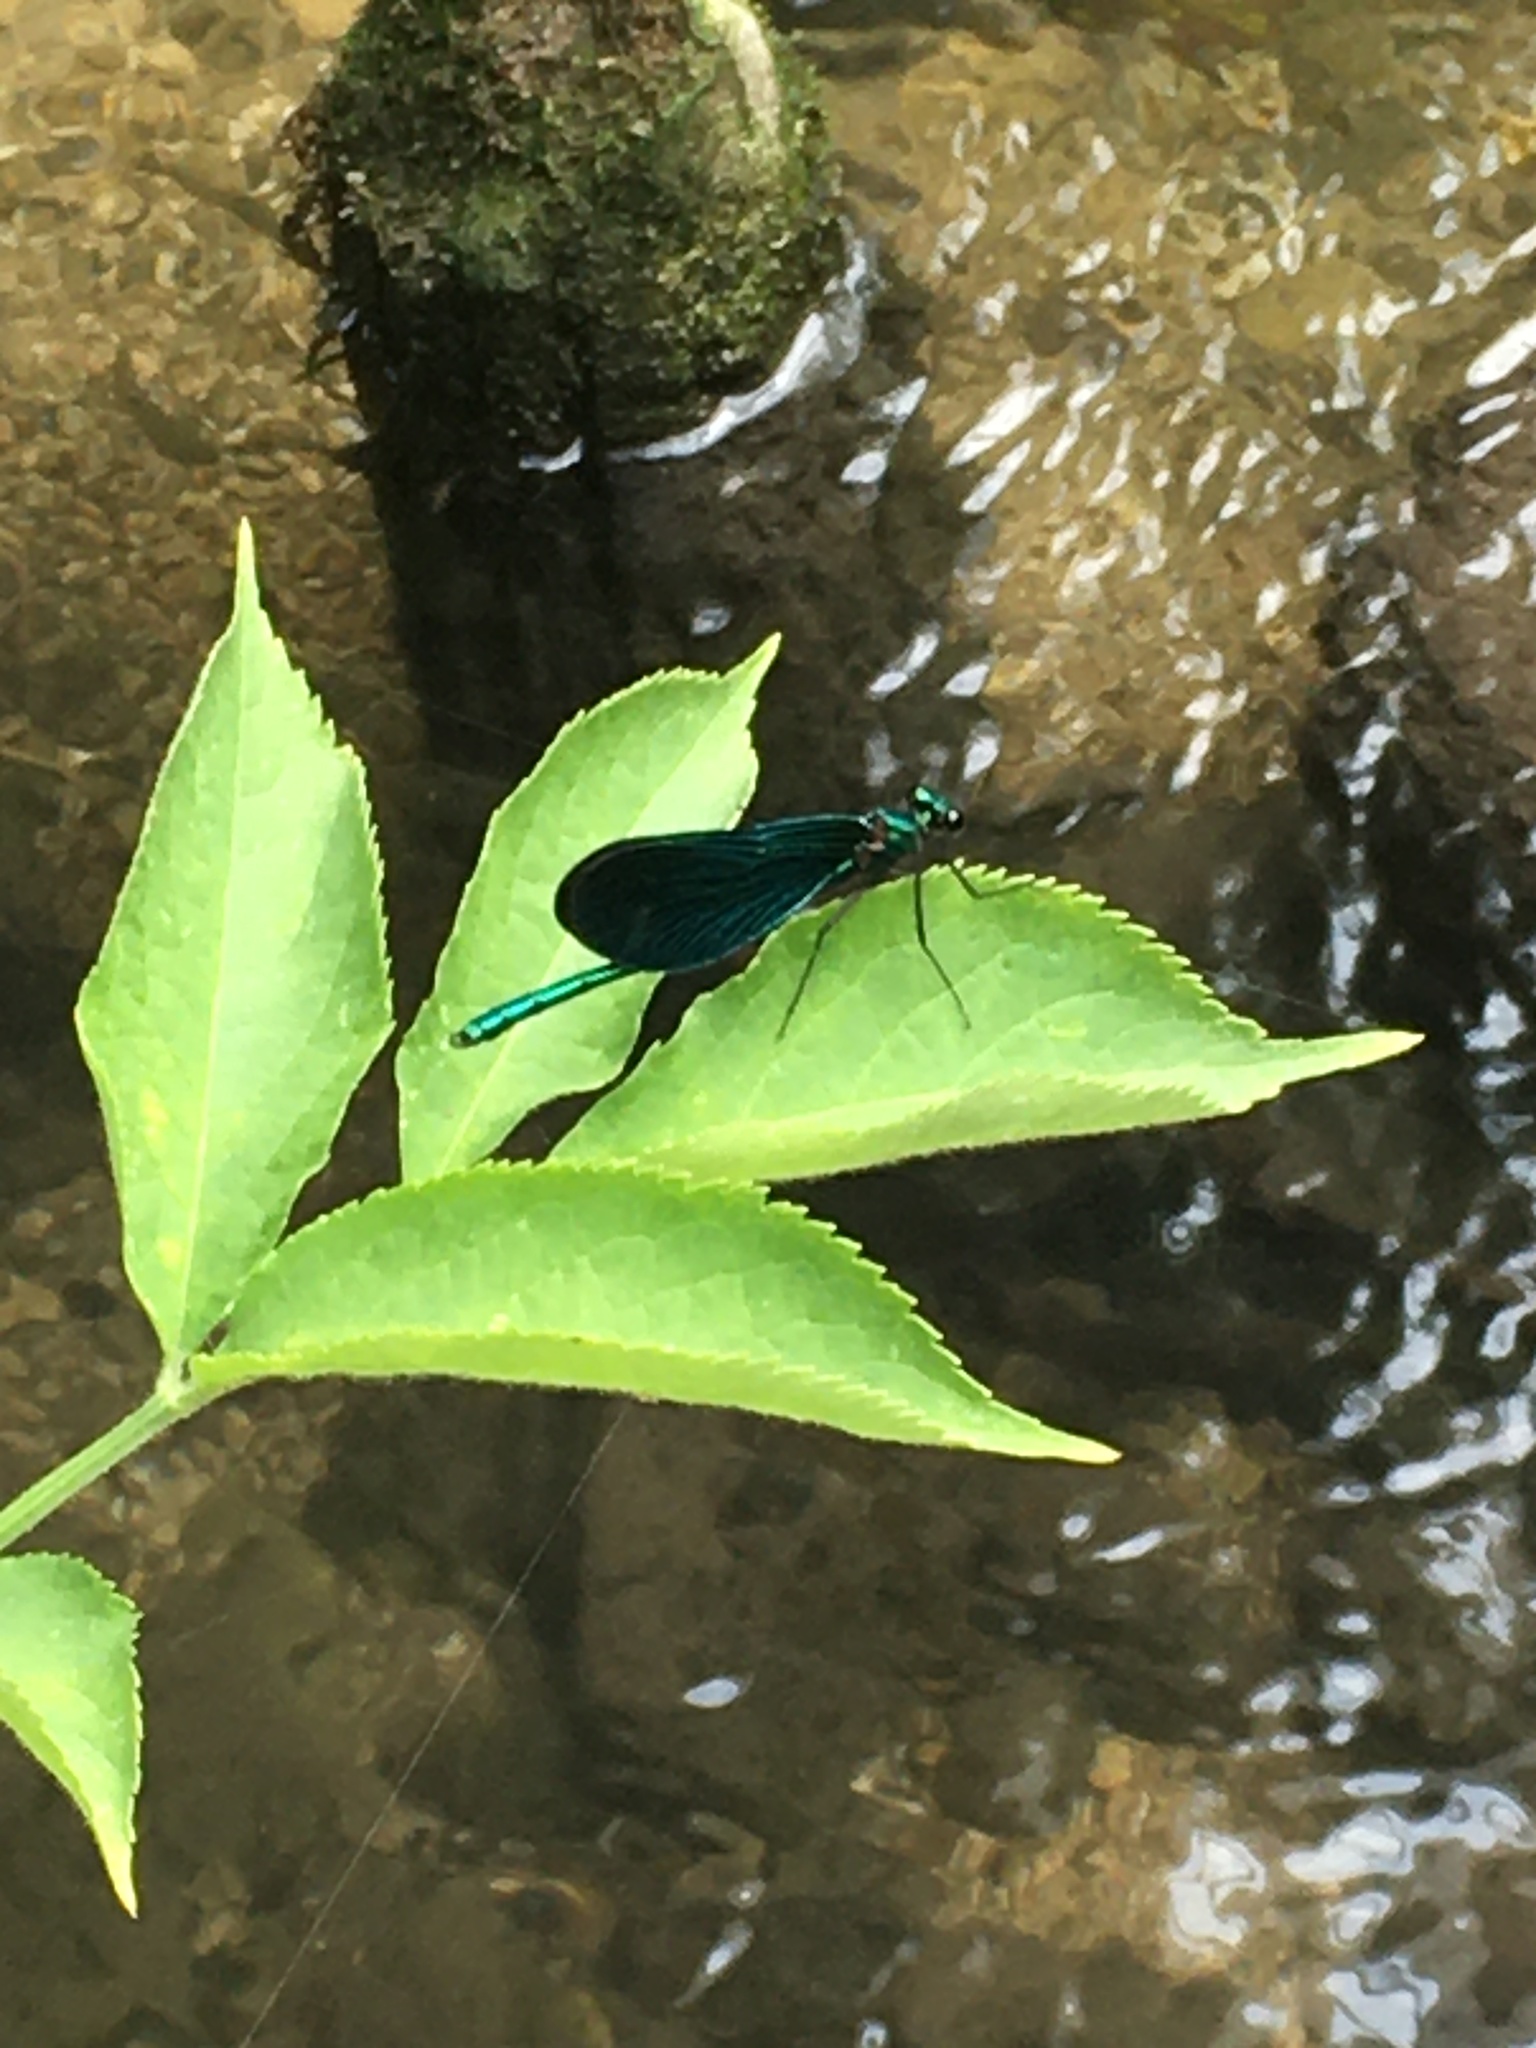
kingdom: Animalia
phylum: Arthropoda
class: Insecta
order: Odonata
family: Calopterygidae
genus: Calopteryx
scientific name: Calopteryx virgo
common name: Beautiful demoiselle
